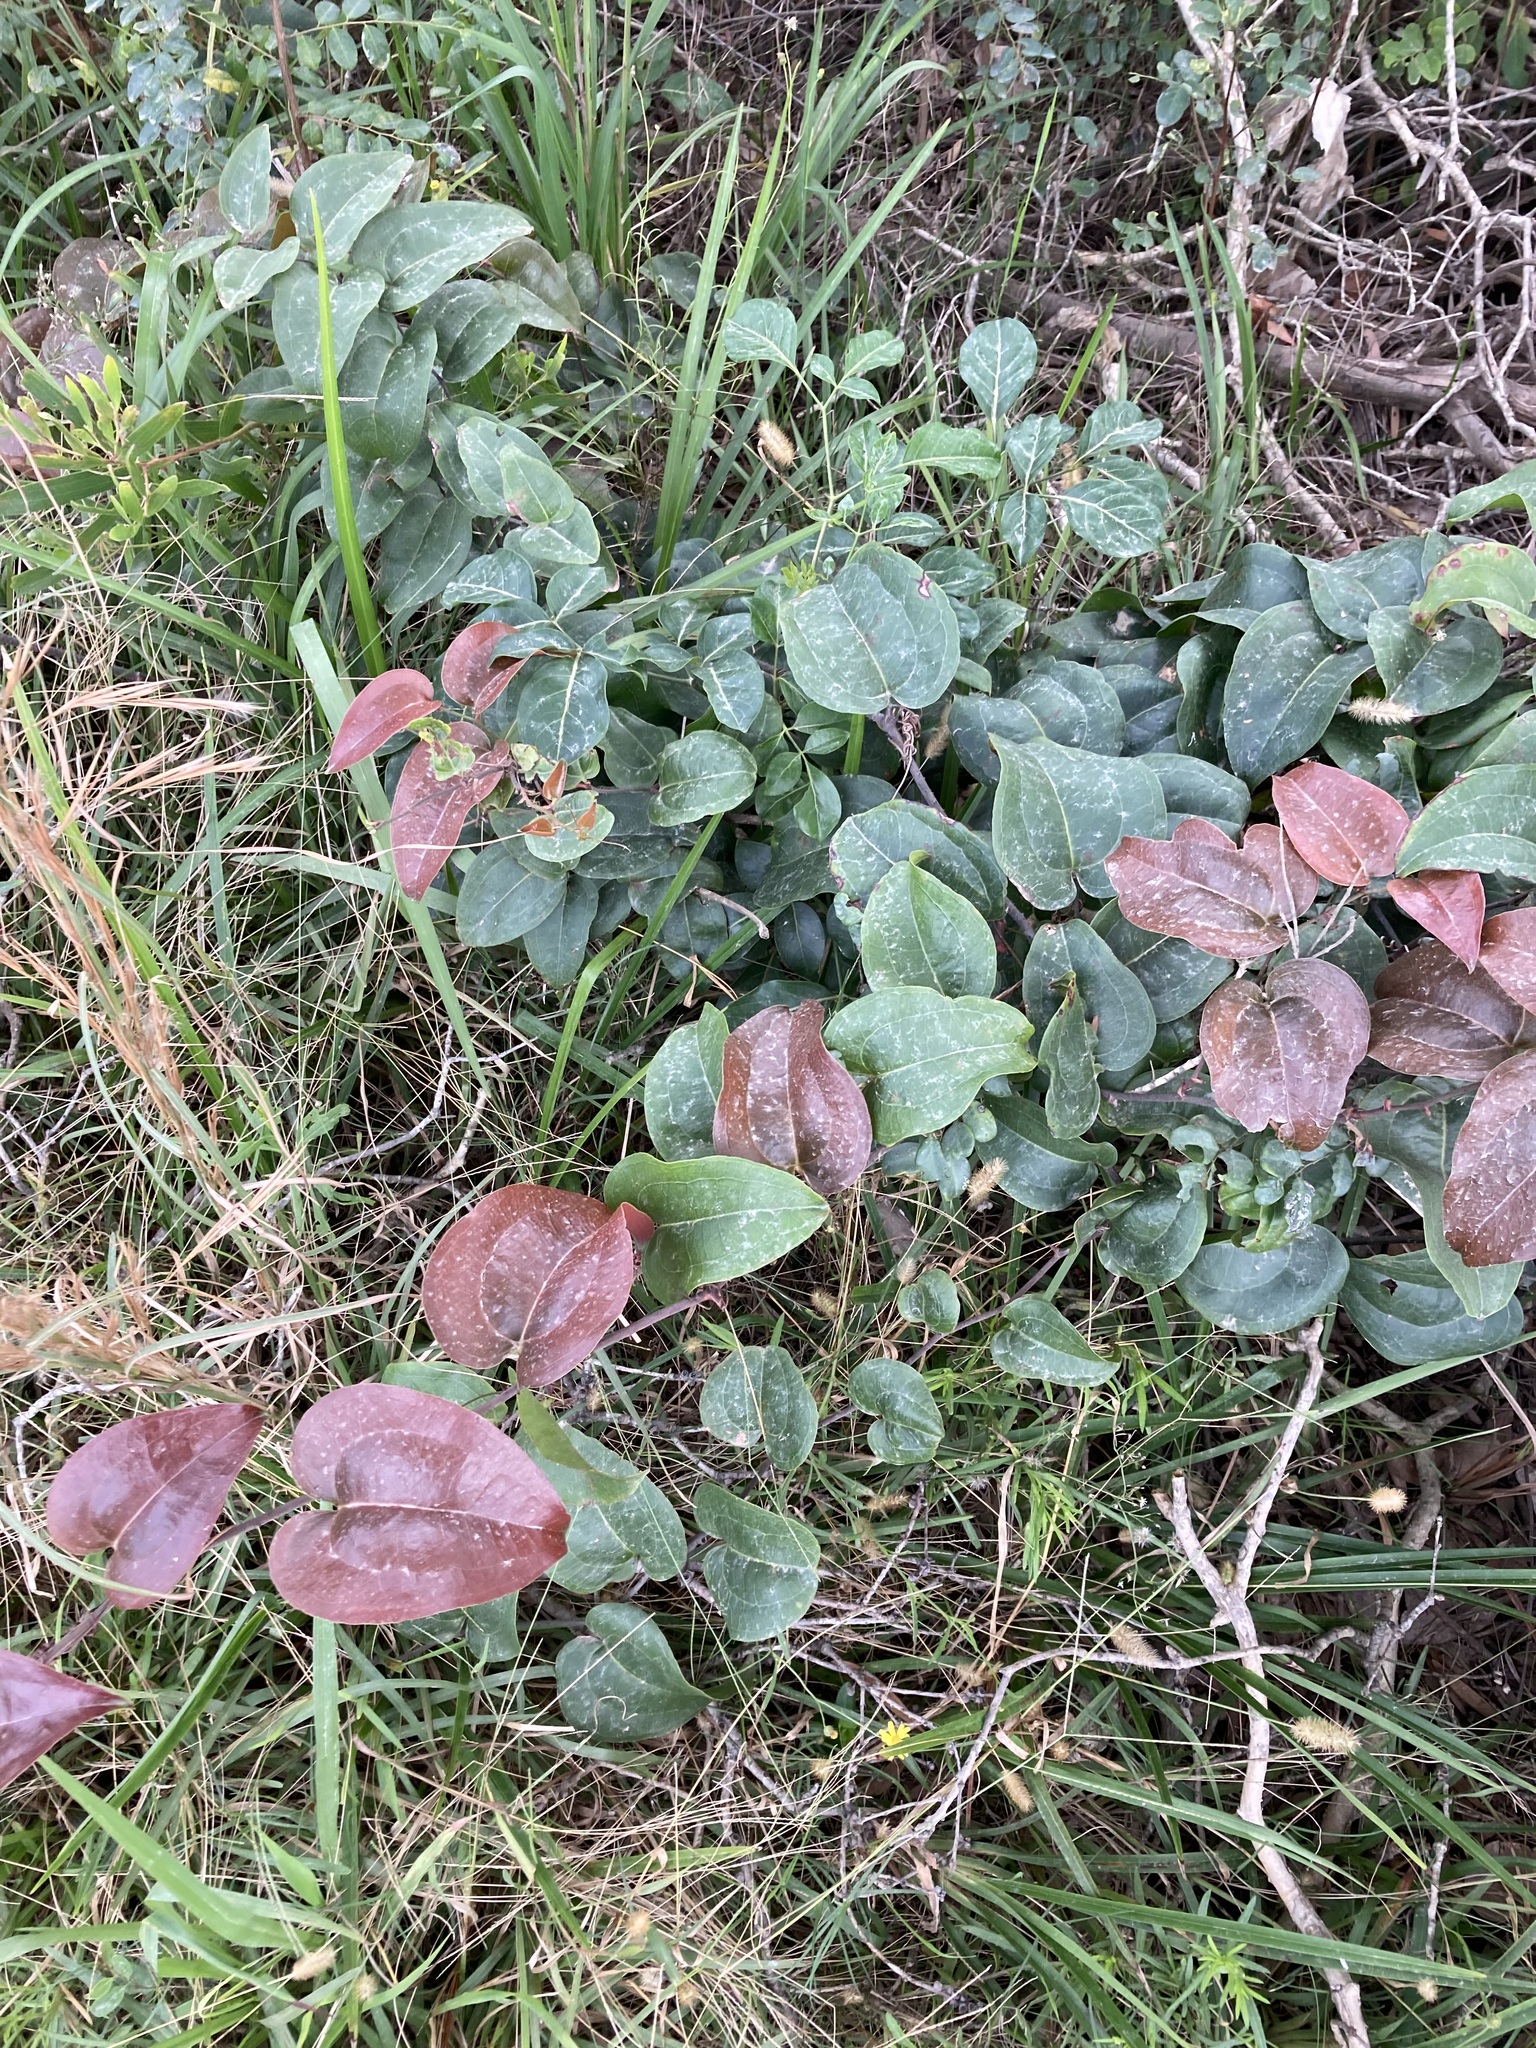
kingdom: Plantae
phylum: Tracheophyta
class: Liliopsida
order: Liliales
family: Smilacaceae
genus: Smilax
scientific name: Smilax australis
